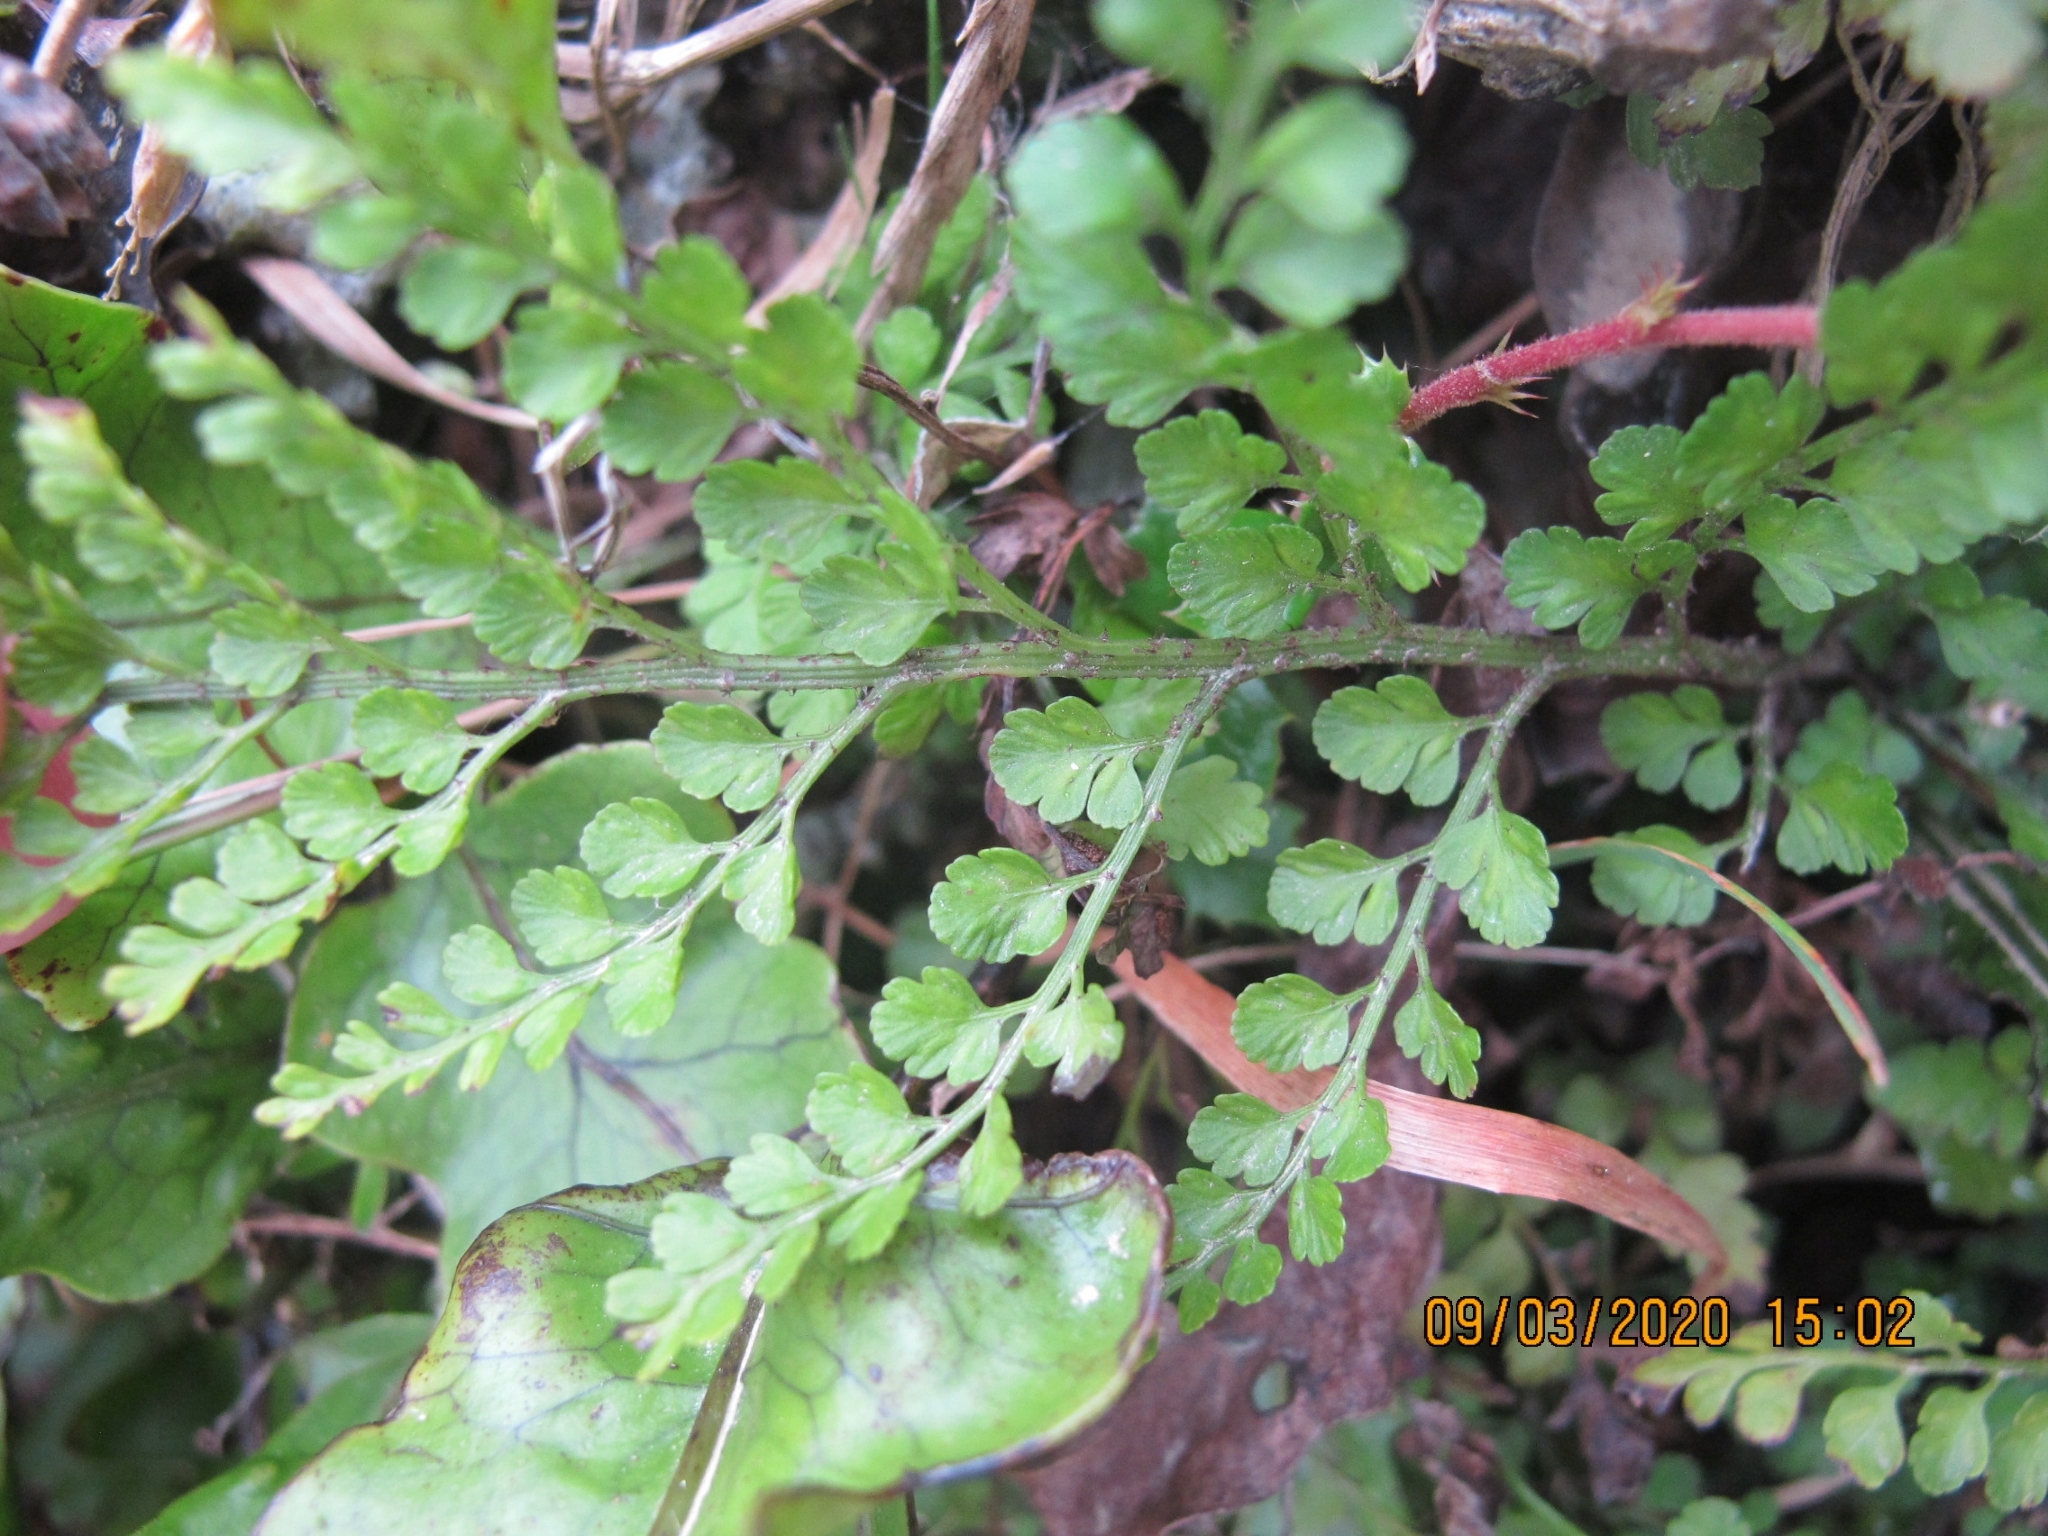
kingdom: Plantae
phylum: Tracheophyta
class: Polypodiopsida
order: Polypodiales
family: Aspleniaceae
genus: Asplenium
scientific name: Asplenium hookerianum
